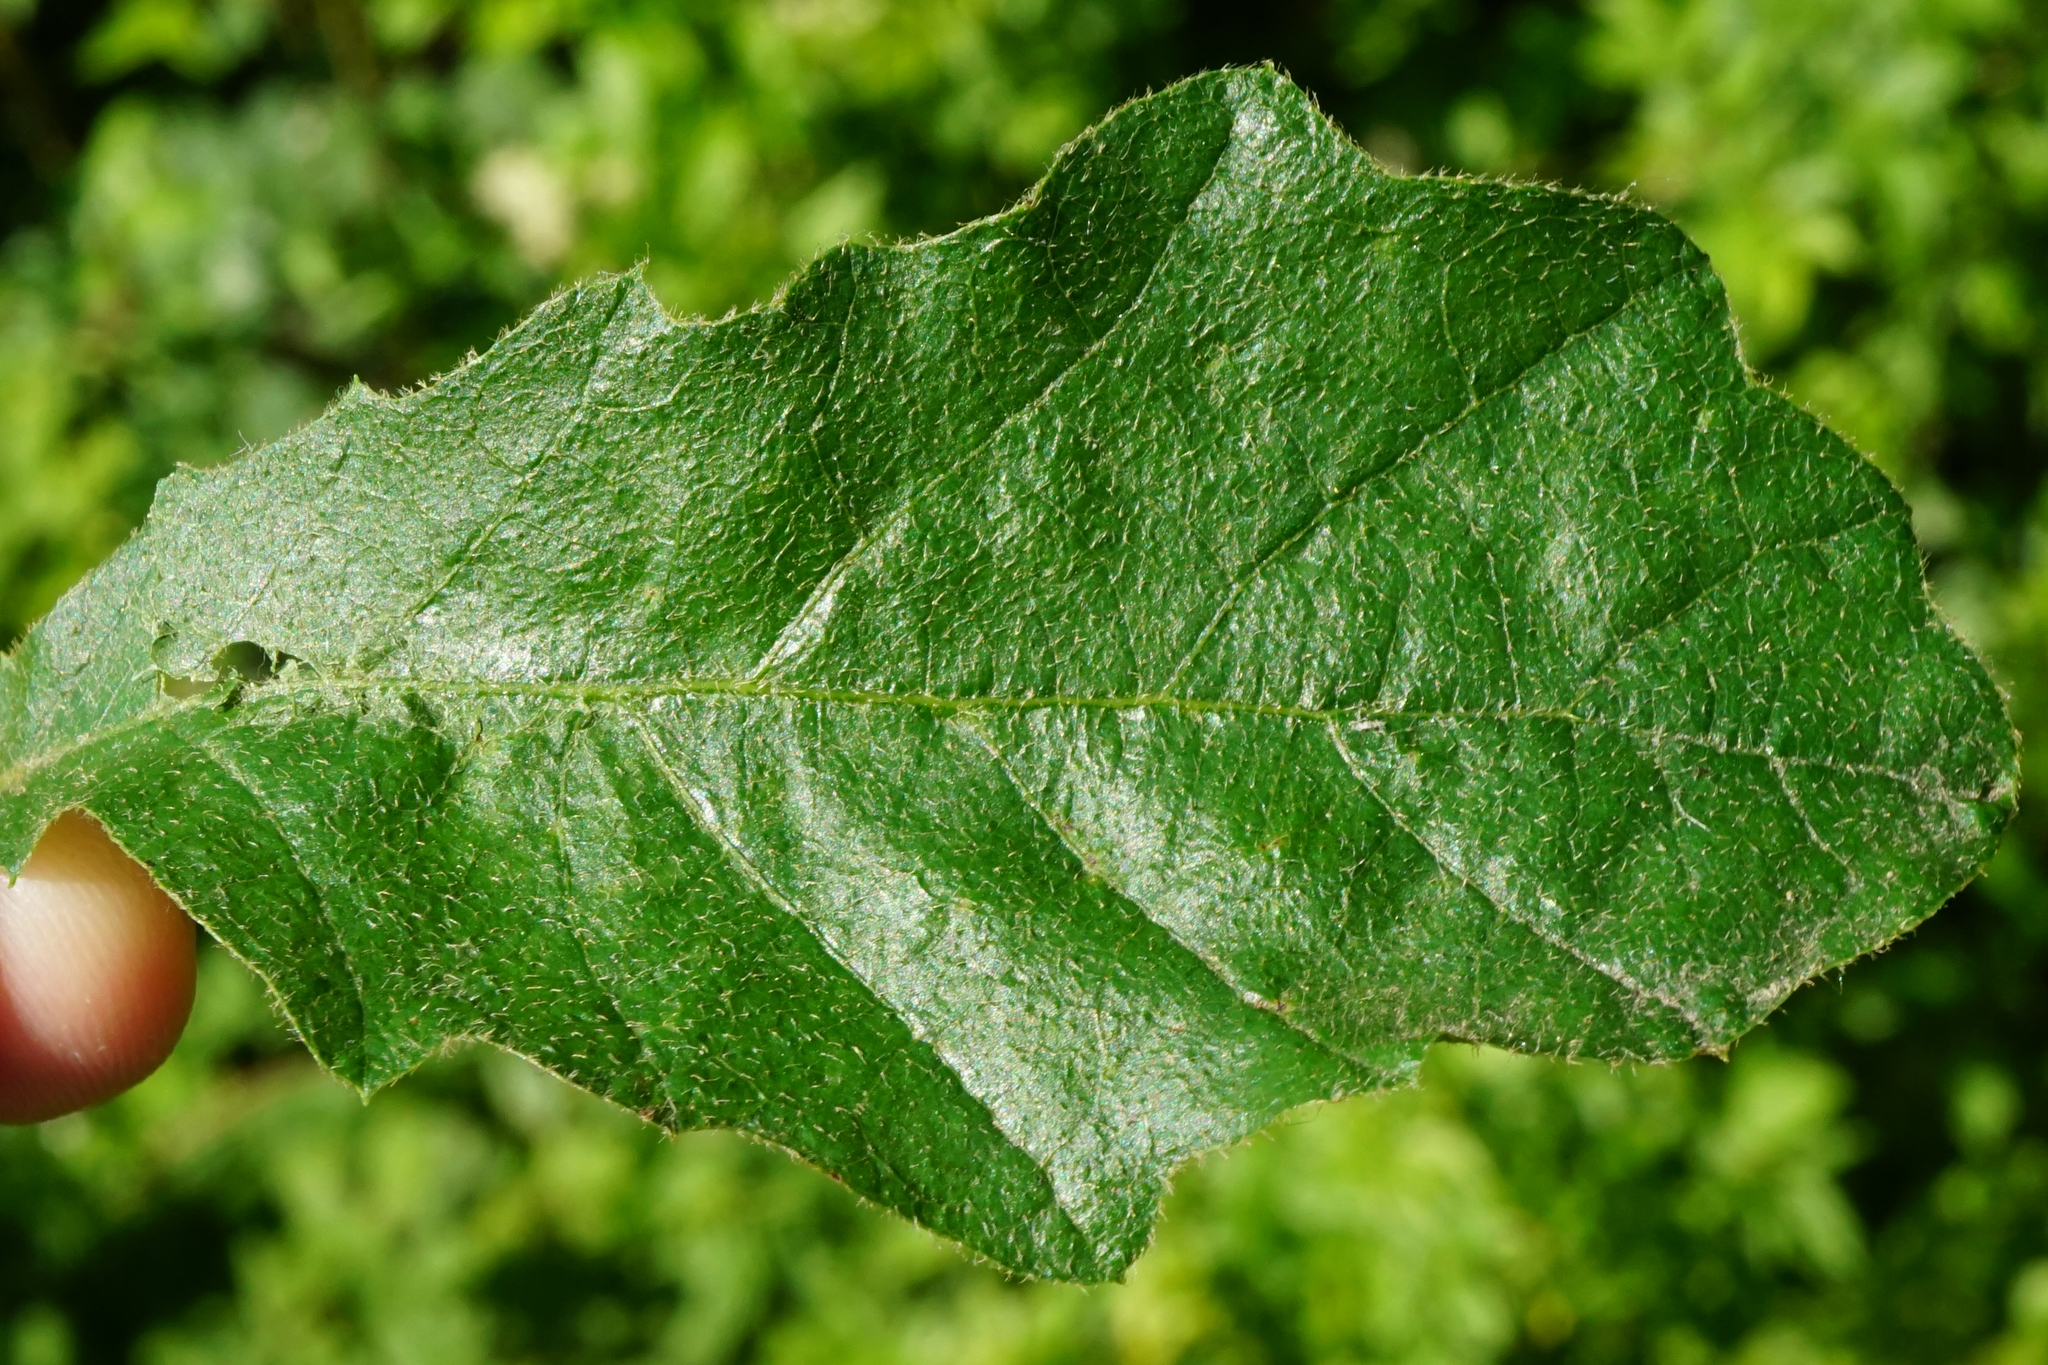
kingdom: Plantae
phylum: Tracheophyta
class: Magnoliopsida
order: Fagales
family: Fagaceae
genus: Quercus
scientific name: Quercus cerris
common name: Turkey oak
